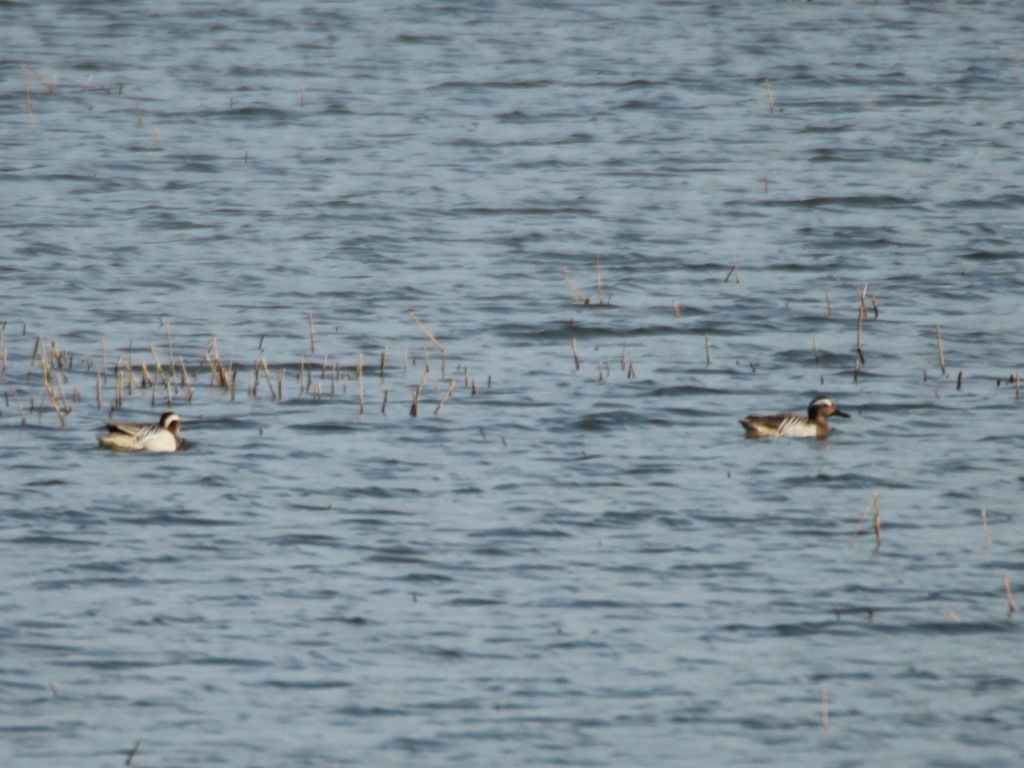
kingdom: Animalia
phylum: Chordata
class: Aves
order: Anseriformes
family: Anatidae
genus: Spatula
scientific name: Spatula querquedula
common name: Garganey
